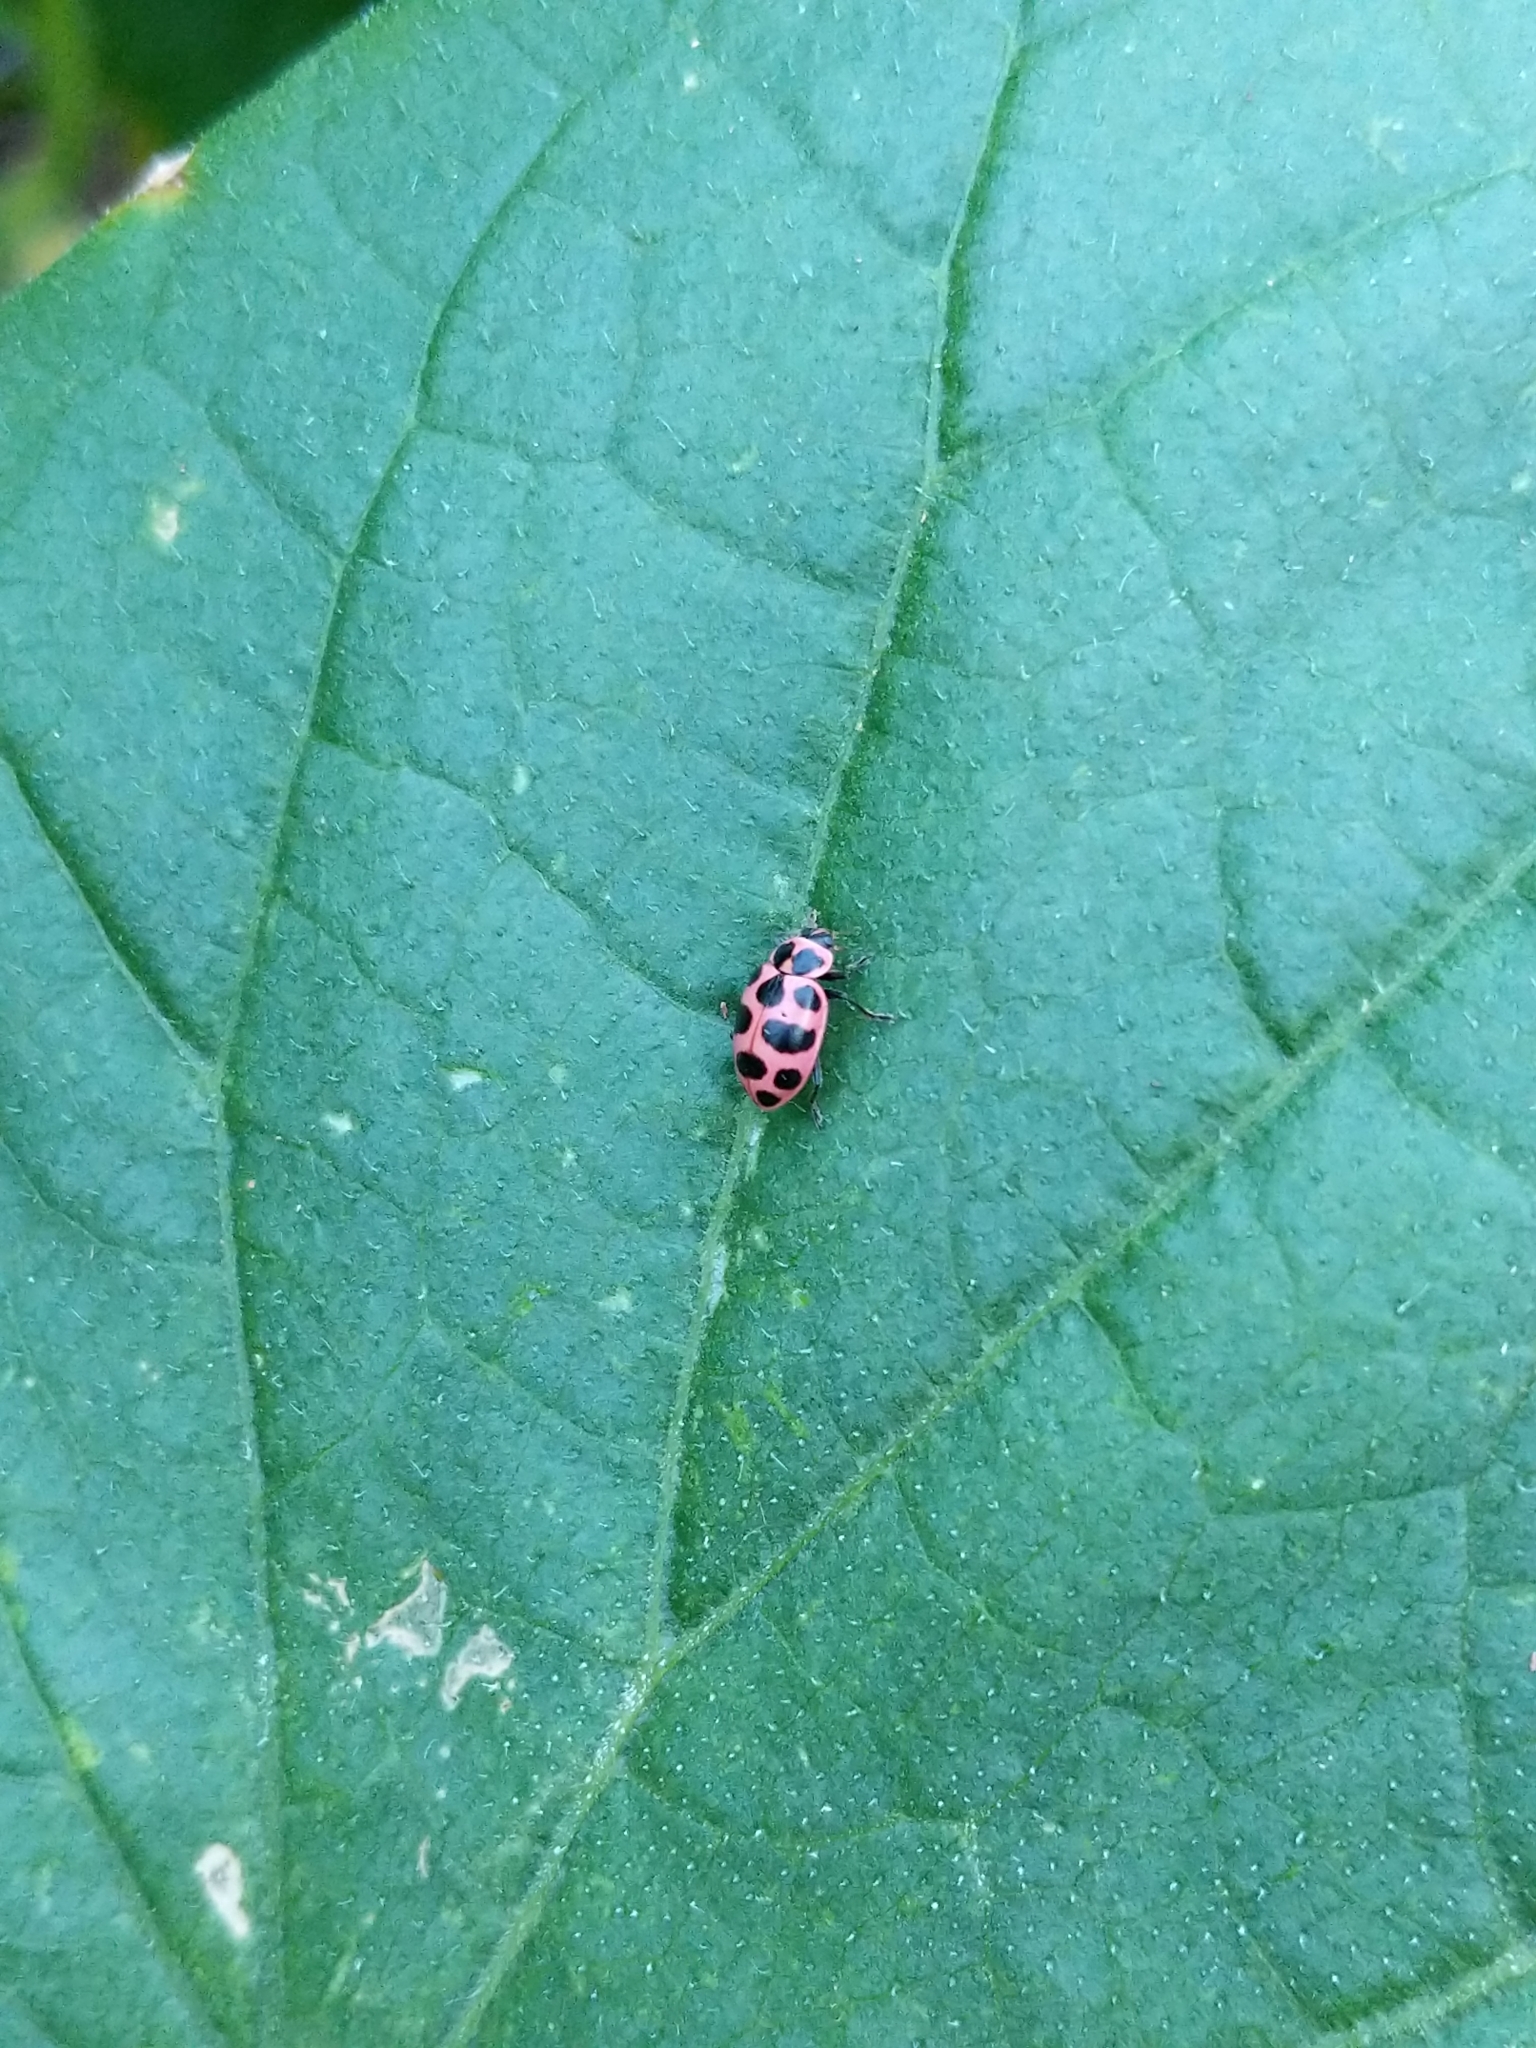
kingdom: Animalia
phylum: Arthropoda
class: Insecta
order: Coleoptera
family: Coccinellidae
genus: Coleomegilla
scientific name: Coleomegilla maculata
